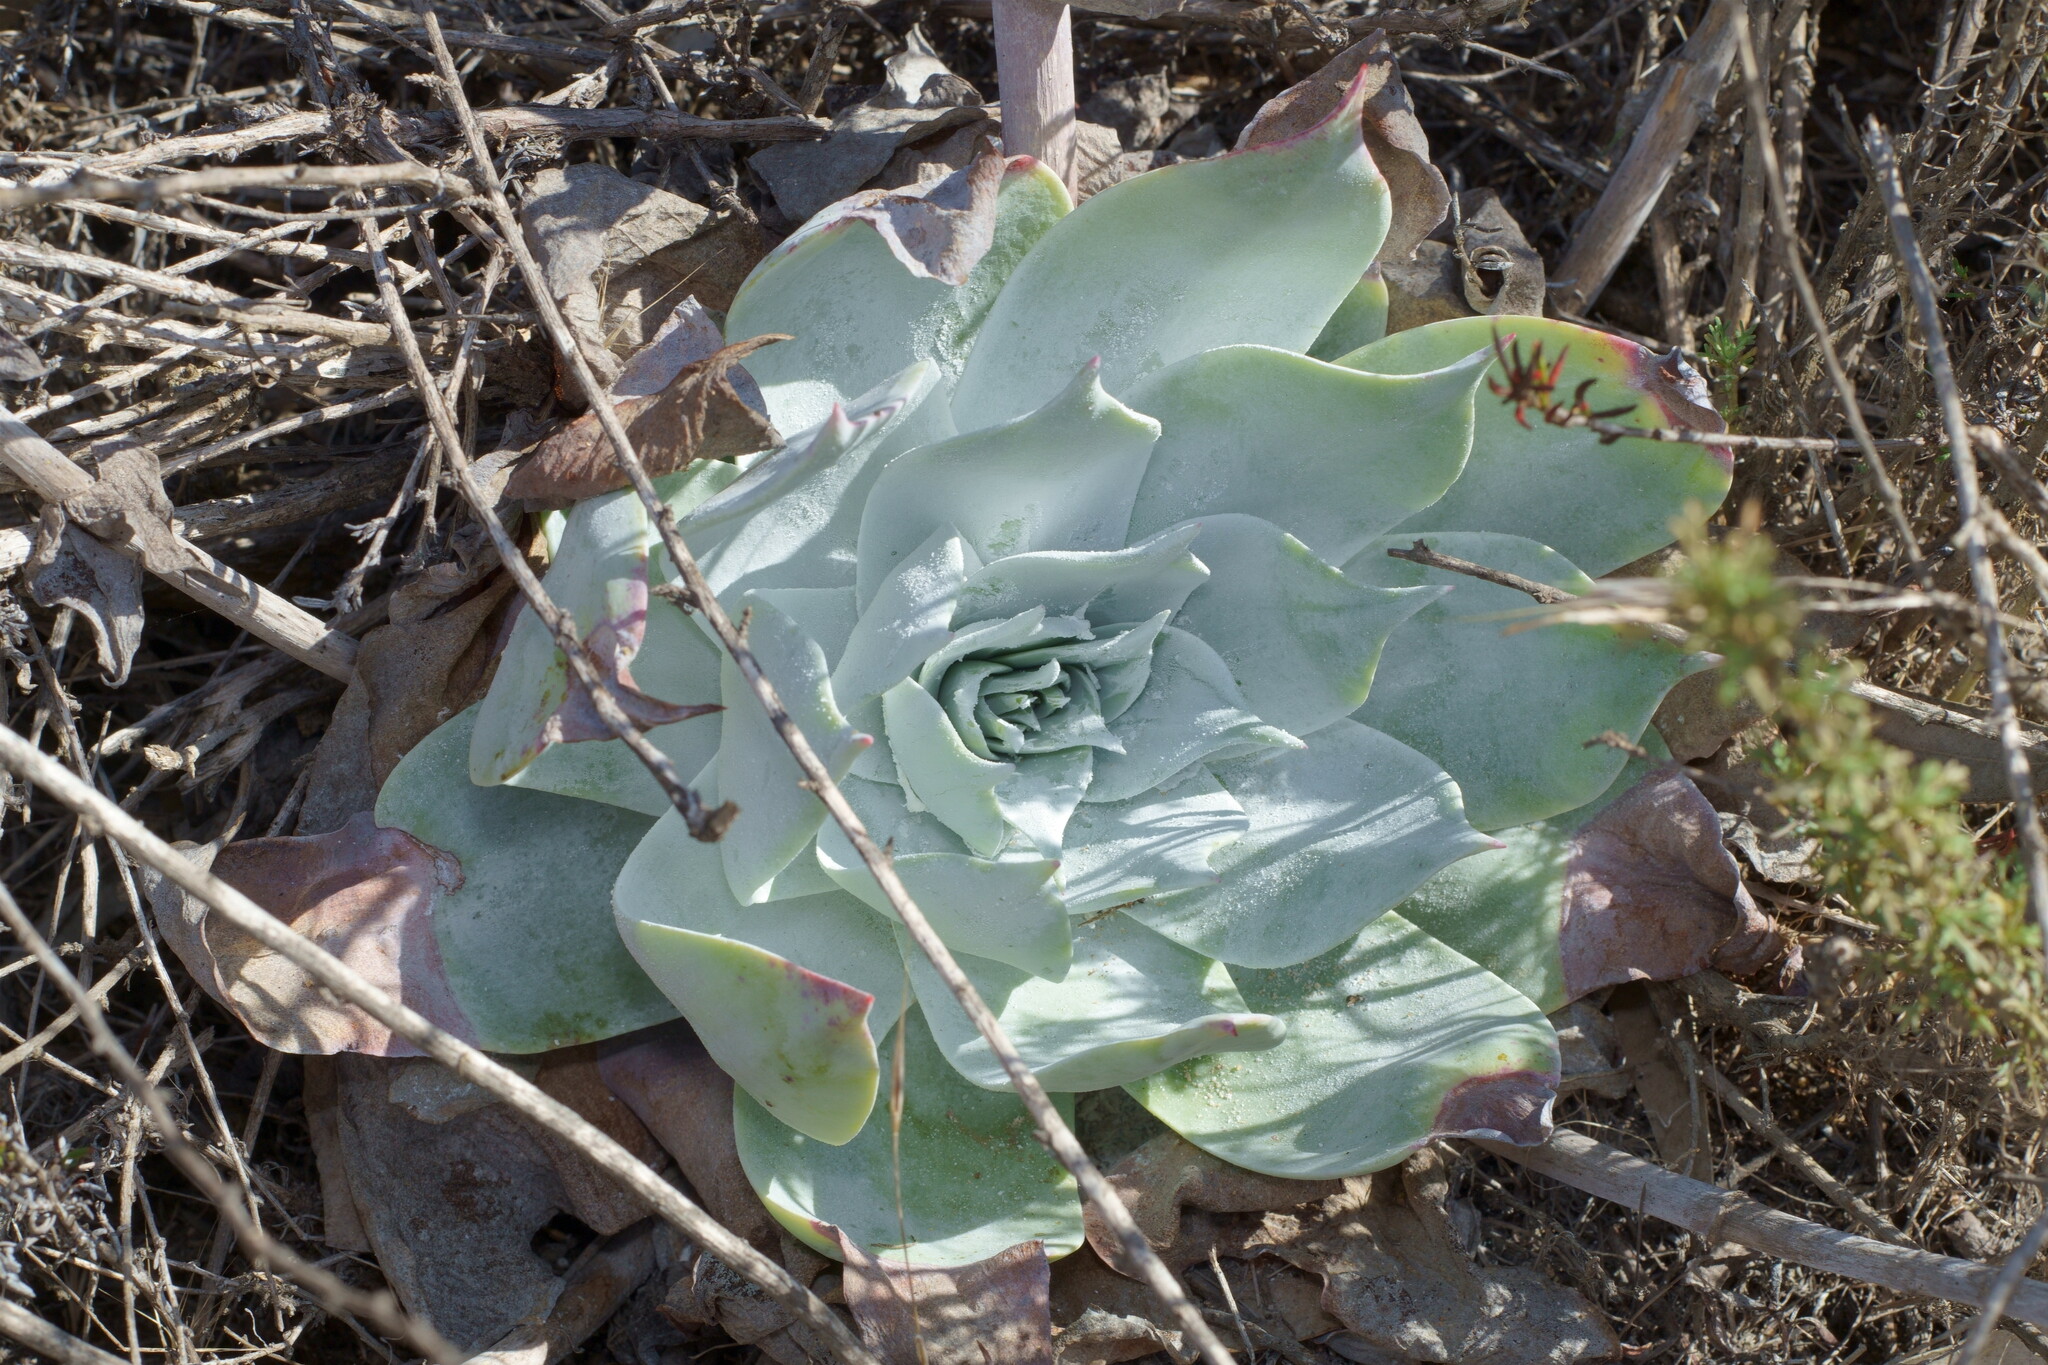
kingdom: Plantae
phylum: Tracheophyta
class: Magnoliopsida
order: Saxifragales
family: Crassulaceae
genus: Dudleya
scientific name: Dudleya pulverulenta
